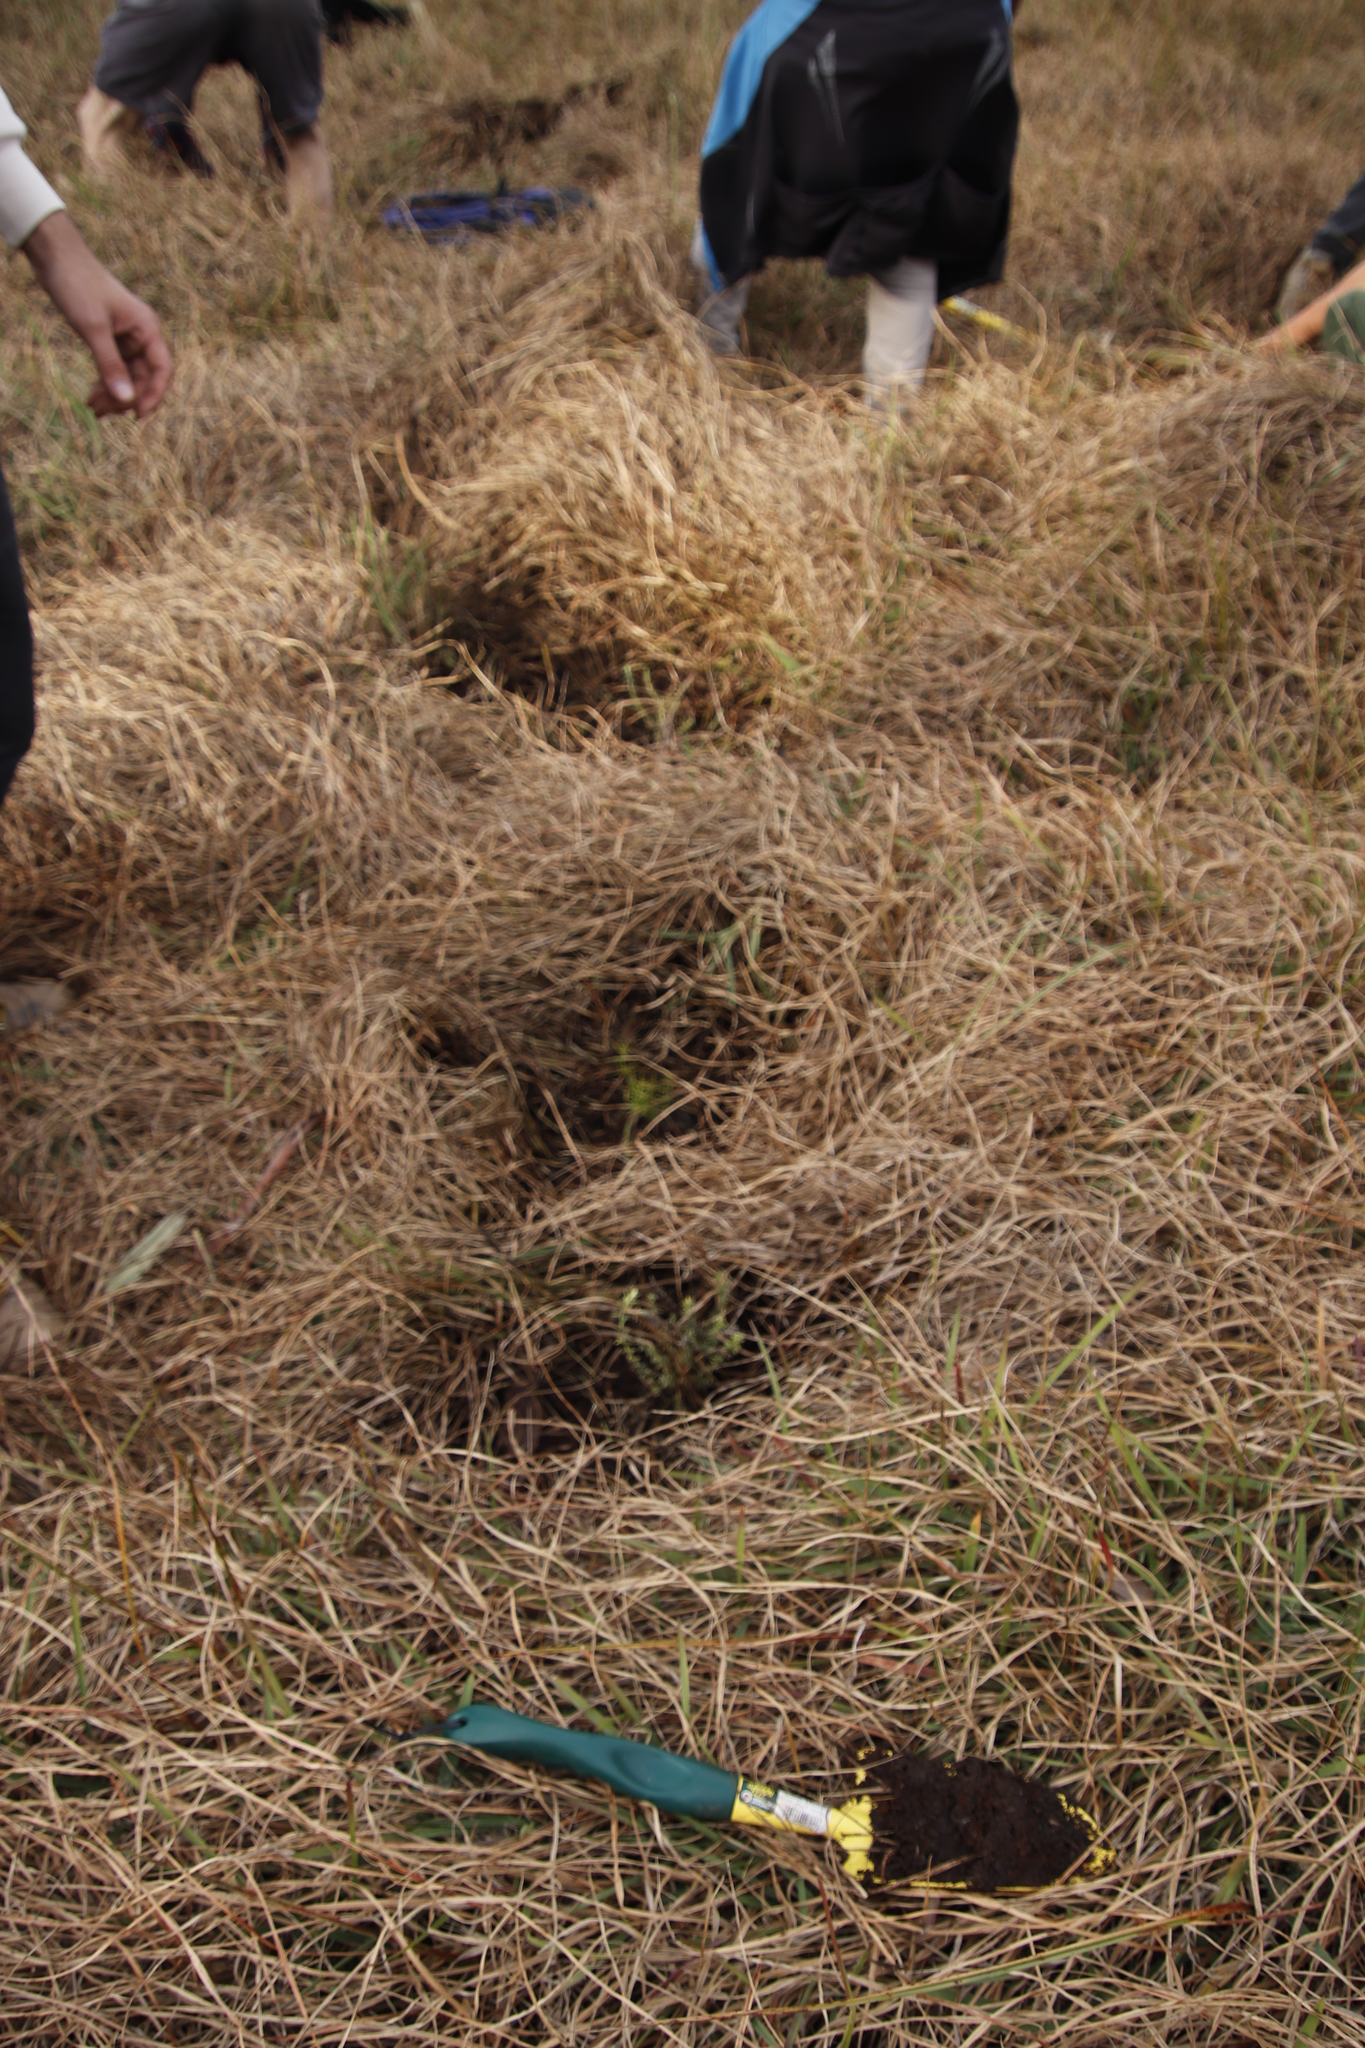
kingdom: Plantae
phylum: Tracheophyta
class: Magnoliopsida
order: Fabales
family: Fabaceae
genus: Psoralea
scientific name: Psoralea fascicularis
